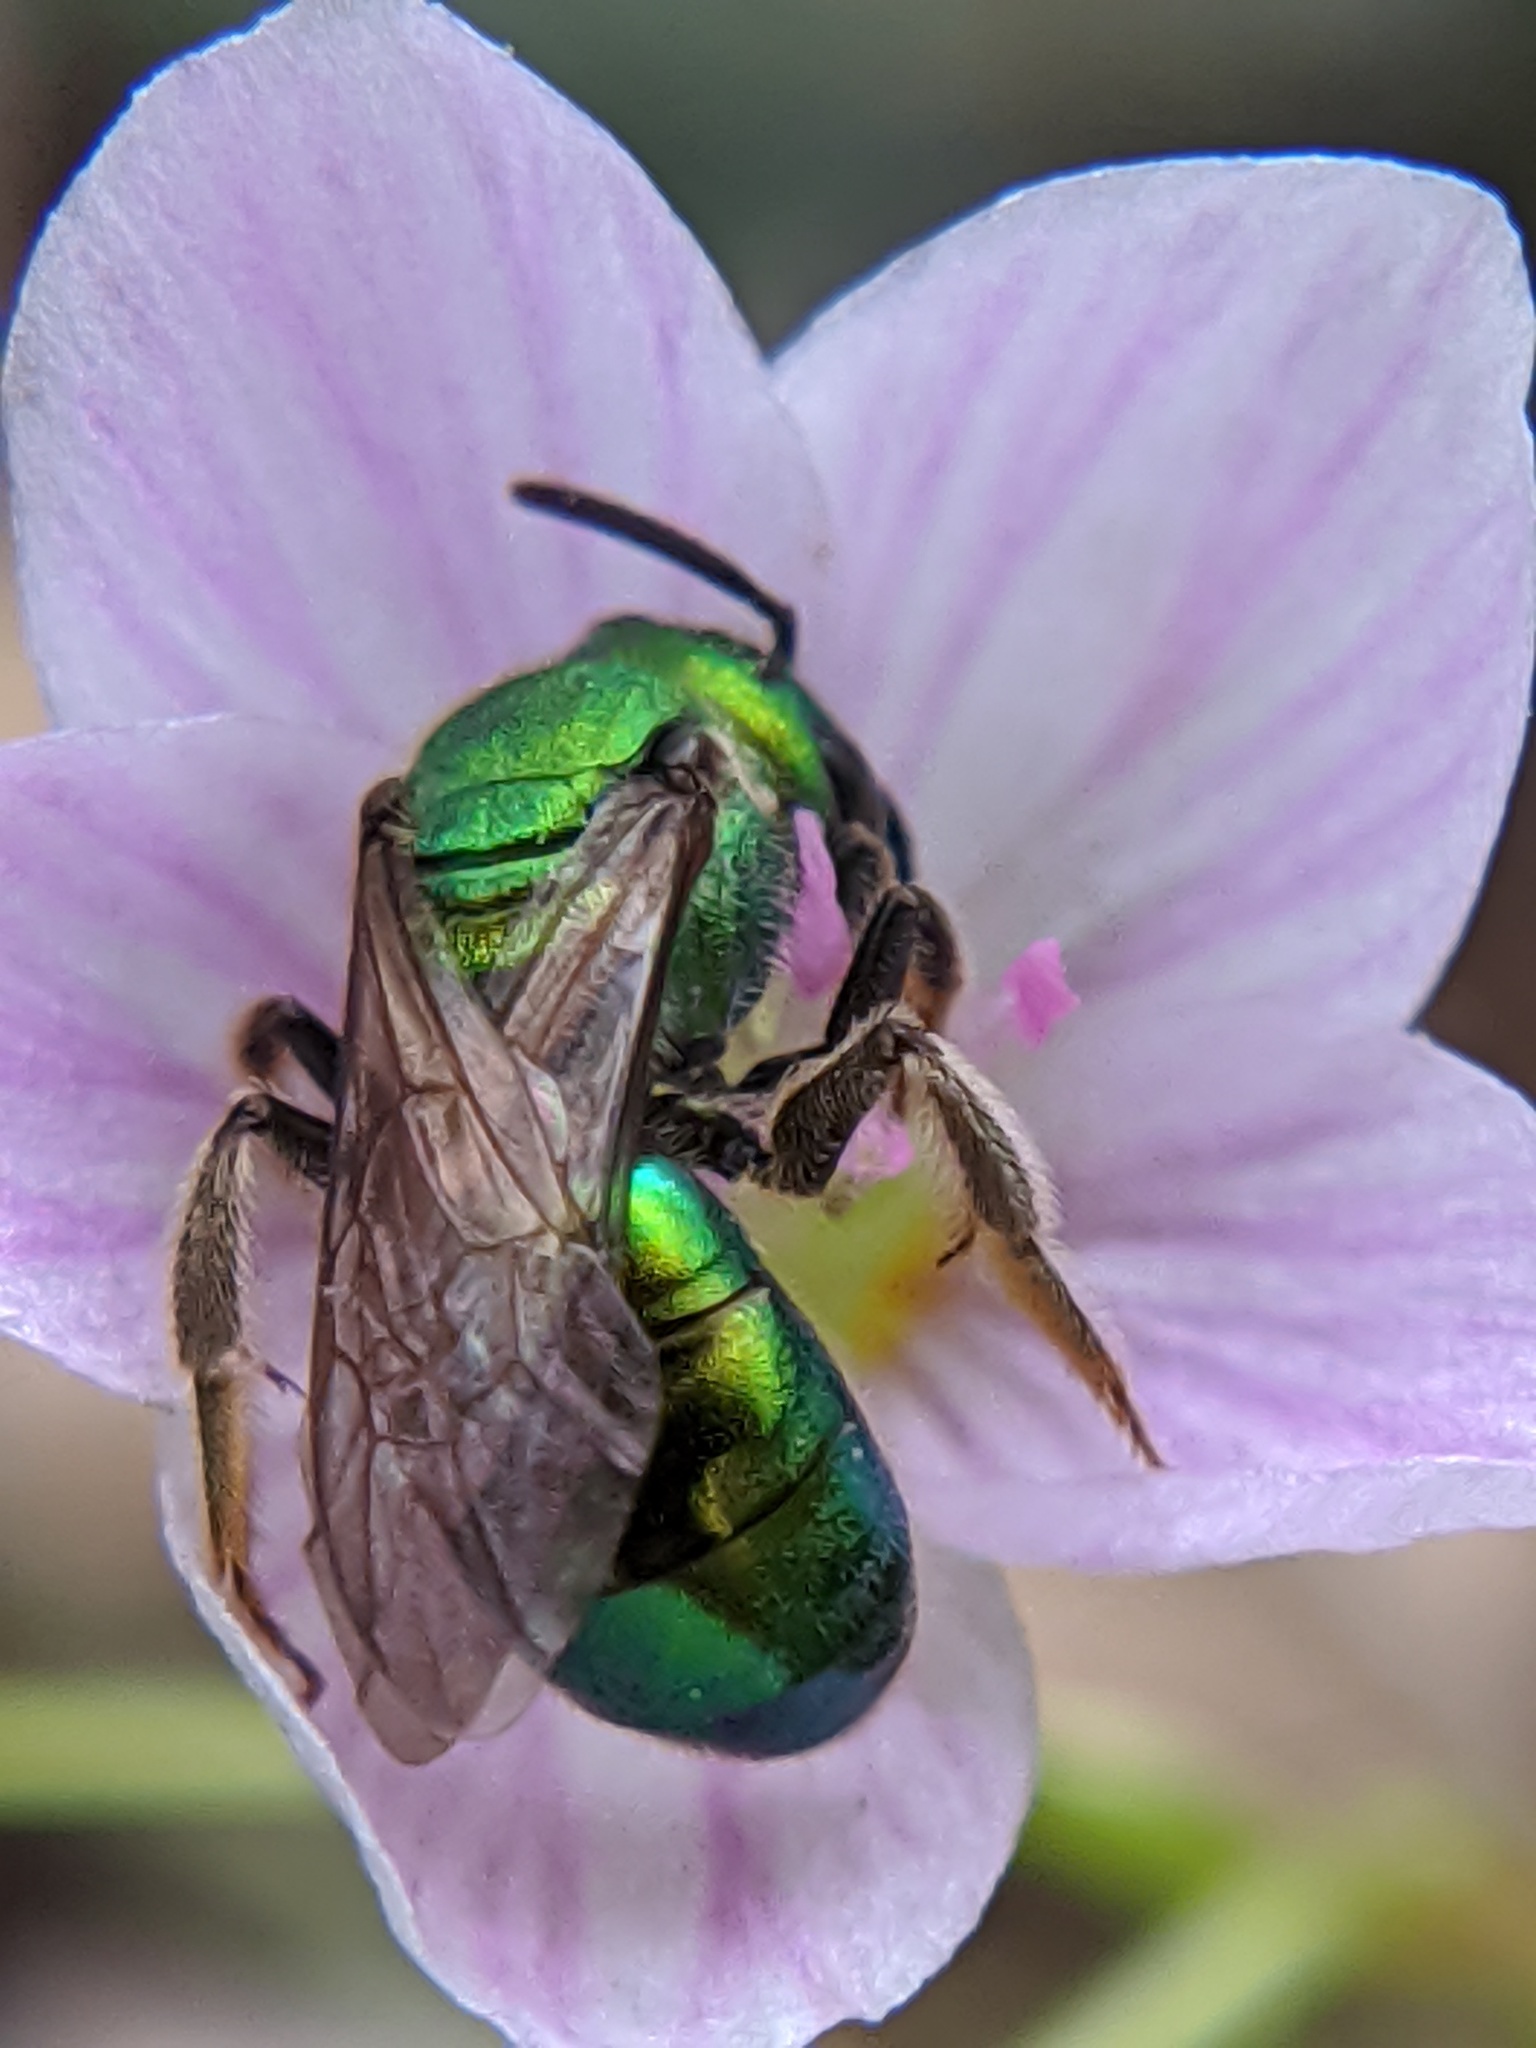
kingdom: Animalia
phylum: Arthropoda
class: Insecta
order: Hymenoptera
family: Halictidae
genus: Augochlora
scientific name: Augochlora pura
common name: Pure green sweat bee
